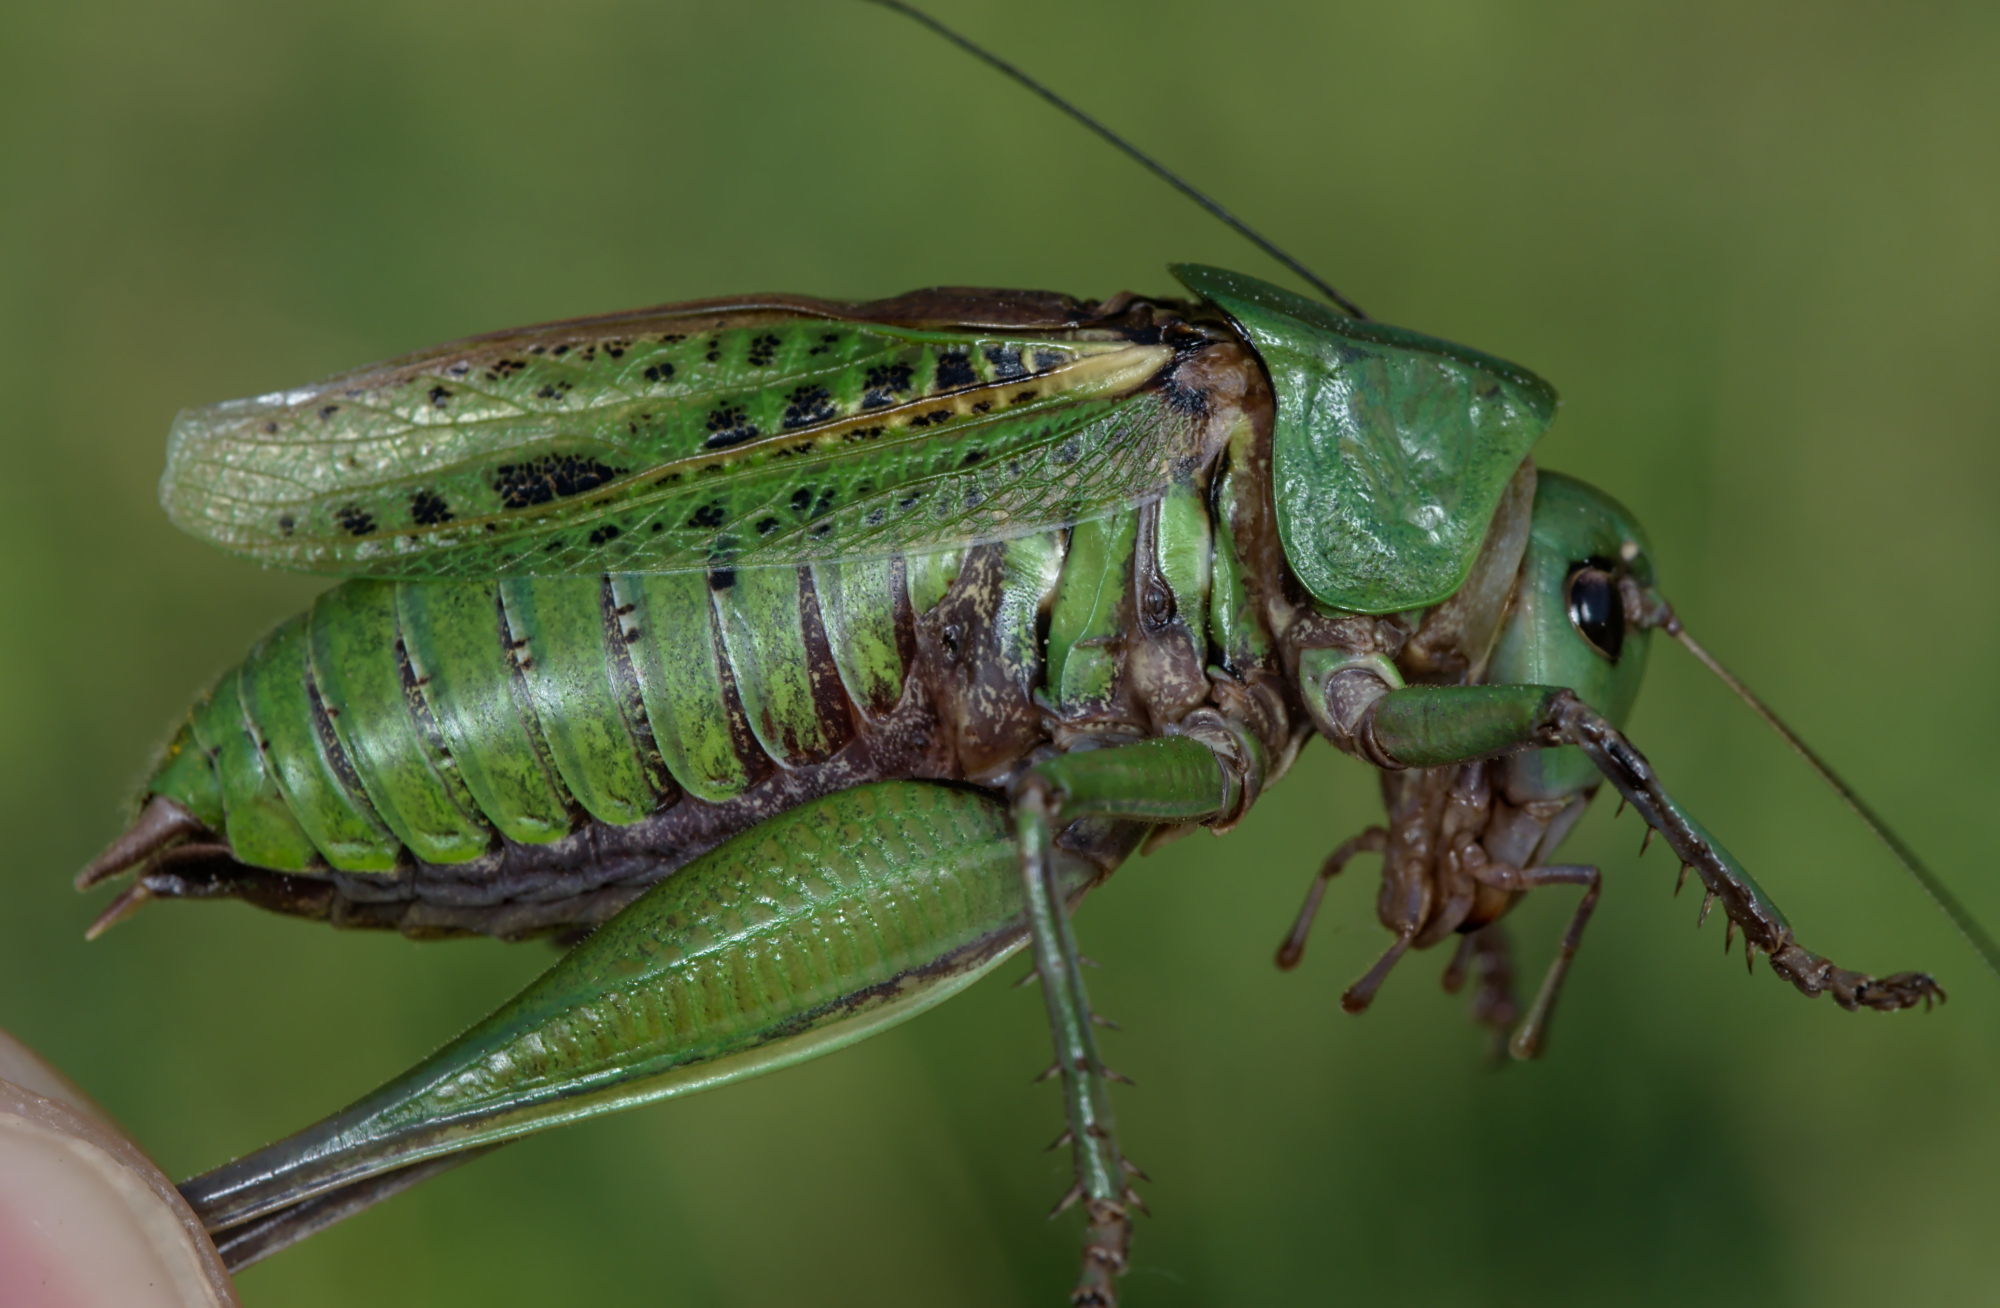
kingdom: Animalia
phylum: Arthropoda
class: Insecta
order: Orthoptera
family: Tettigoniidae
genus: Decticus
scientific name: Decticus verrucivorus
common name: Wart-biter
